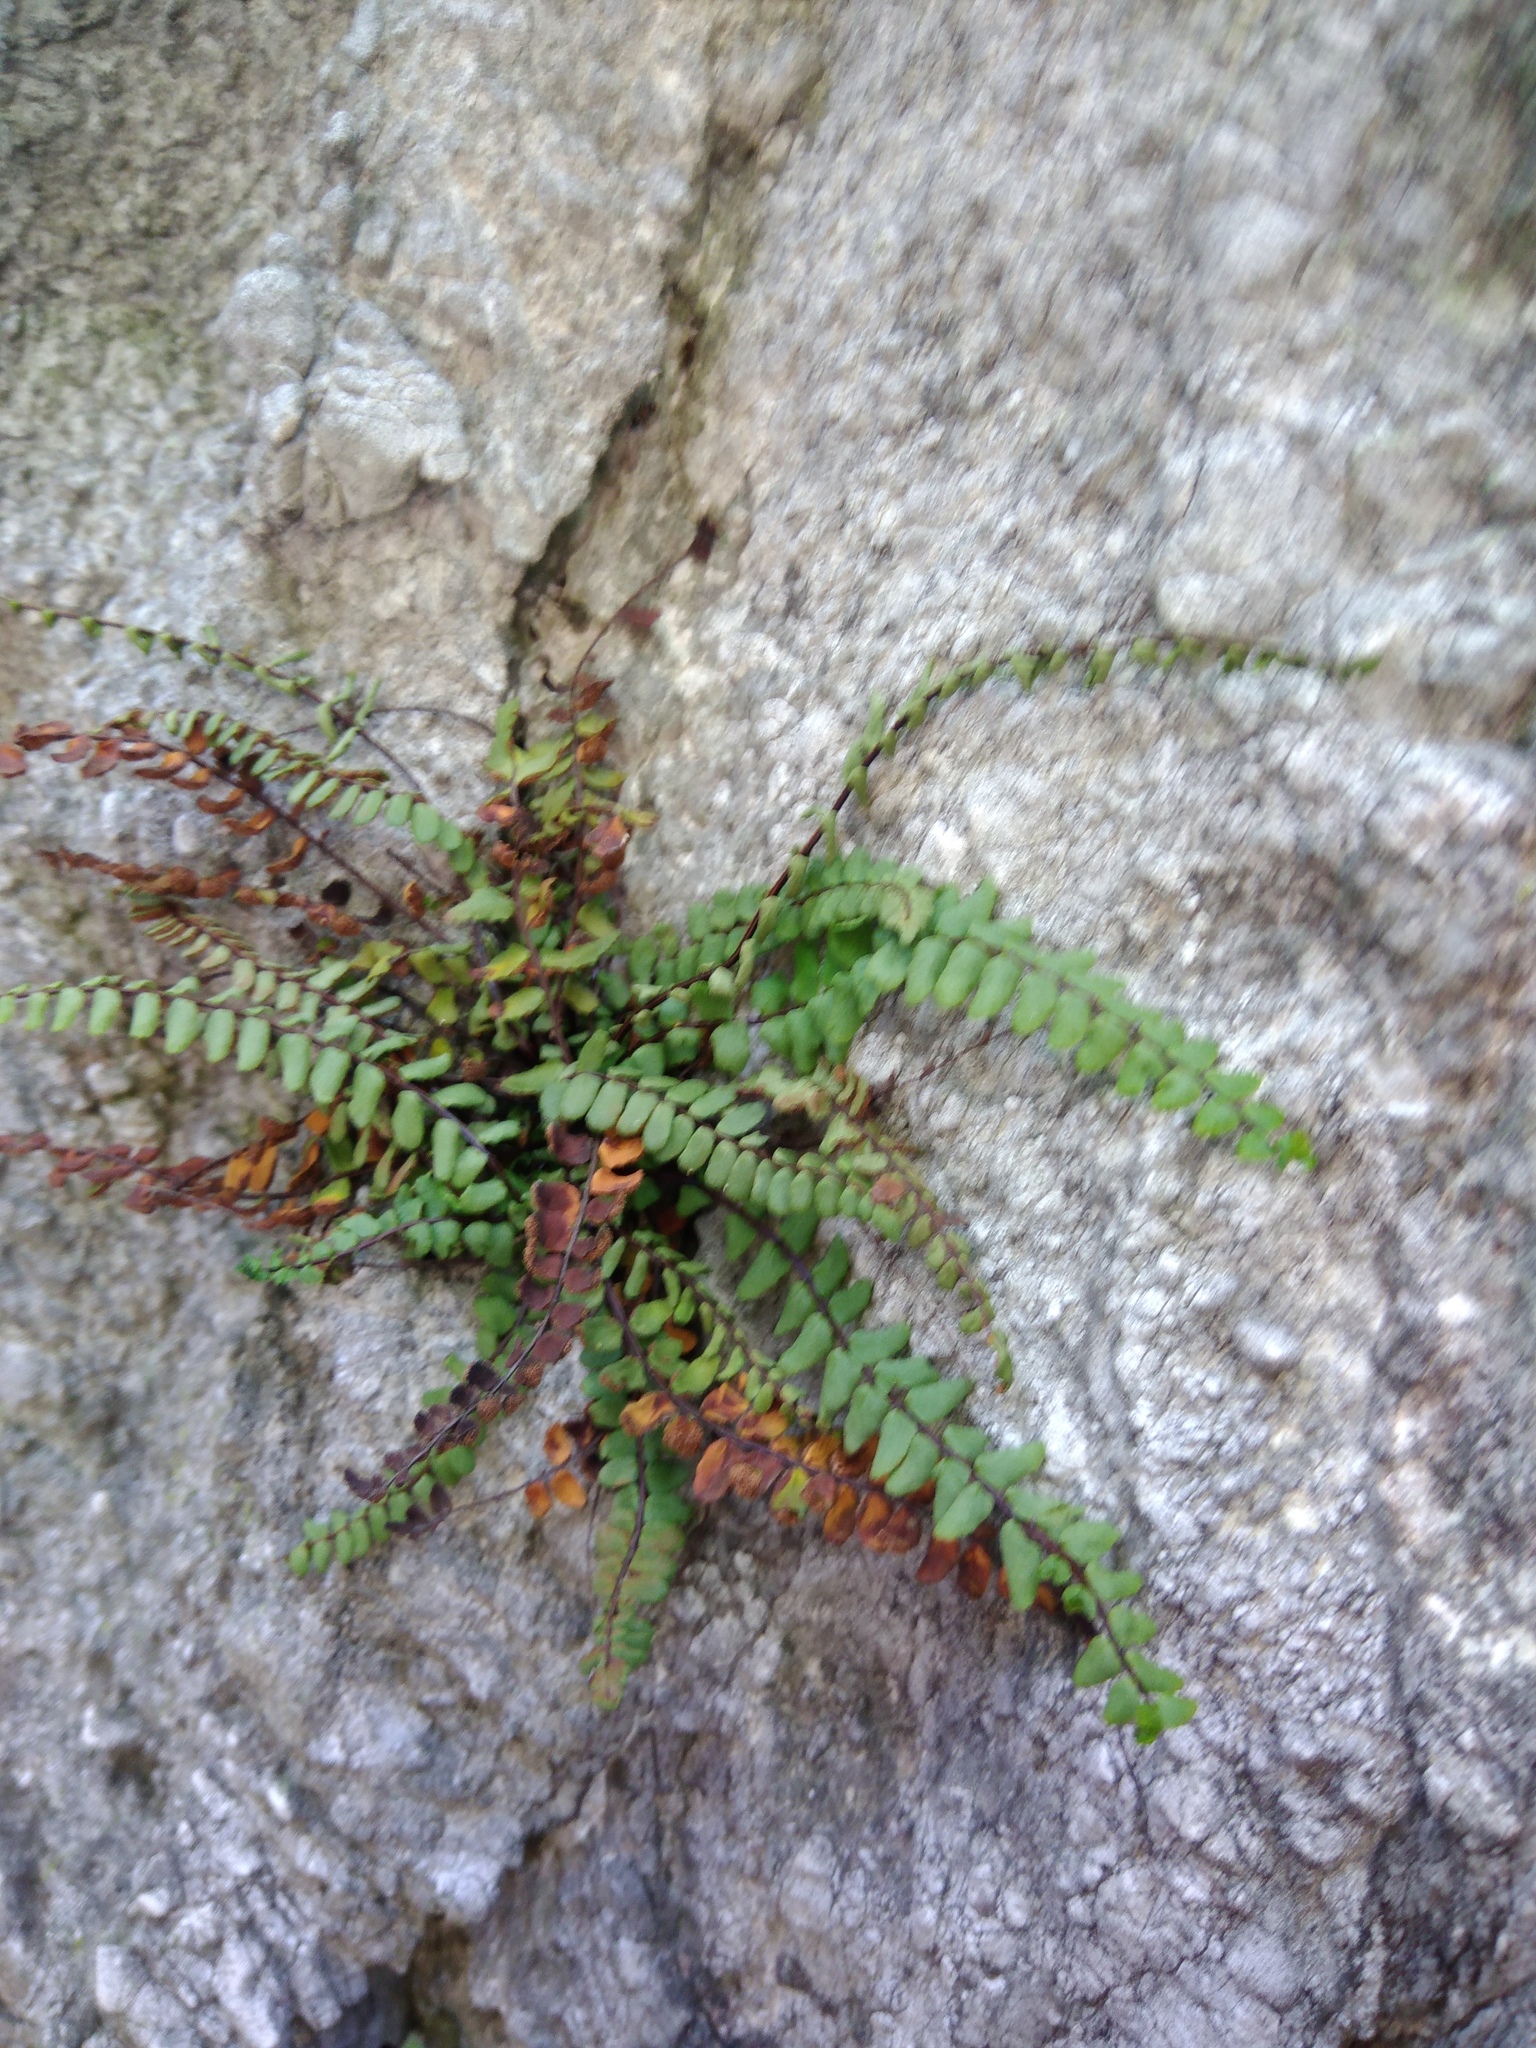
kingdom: Plantae
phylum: Tracheophyta
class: Polypodiopsida
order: Polypodiales
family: Aspleniaceae
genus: Asplenium
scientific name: Asplenium trichomanes
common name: Maidenhair spleenwort
